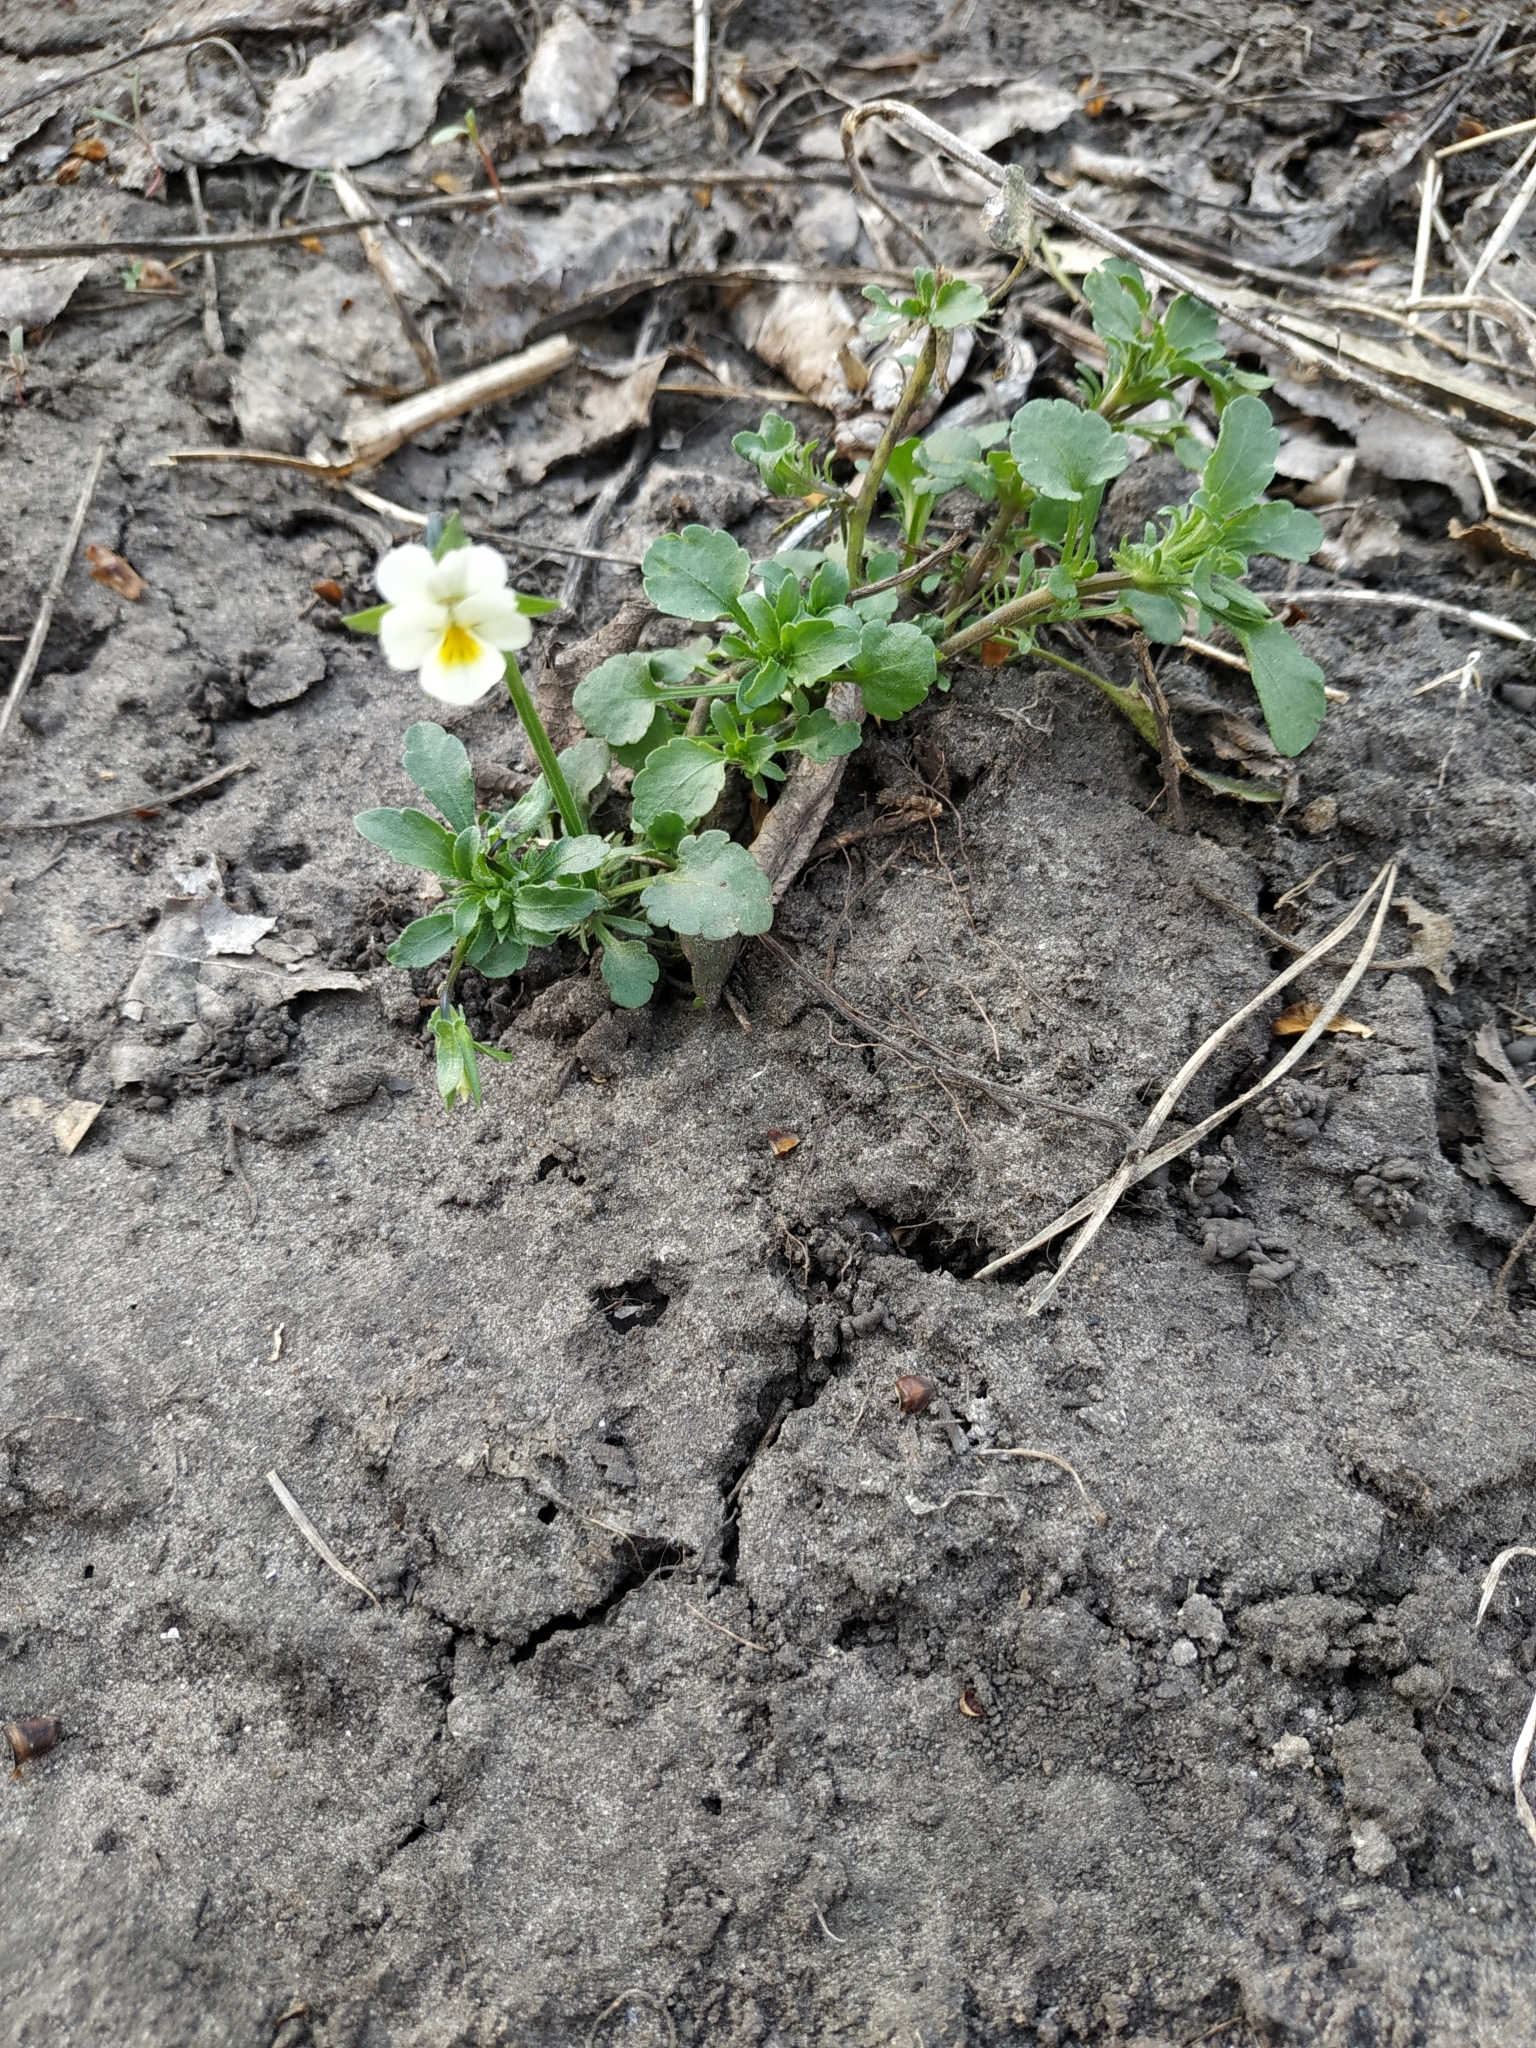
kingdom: Plantae
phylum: Tracheophyta
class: Magnoliopsida
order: Malpighiales
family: Violaceae
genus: Viola
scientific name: Viola arvensis
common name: Field pansy
